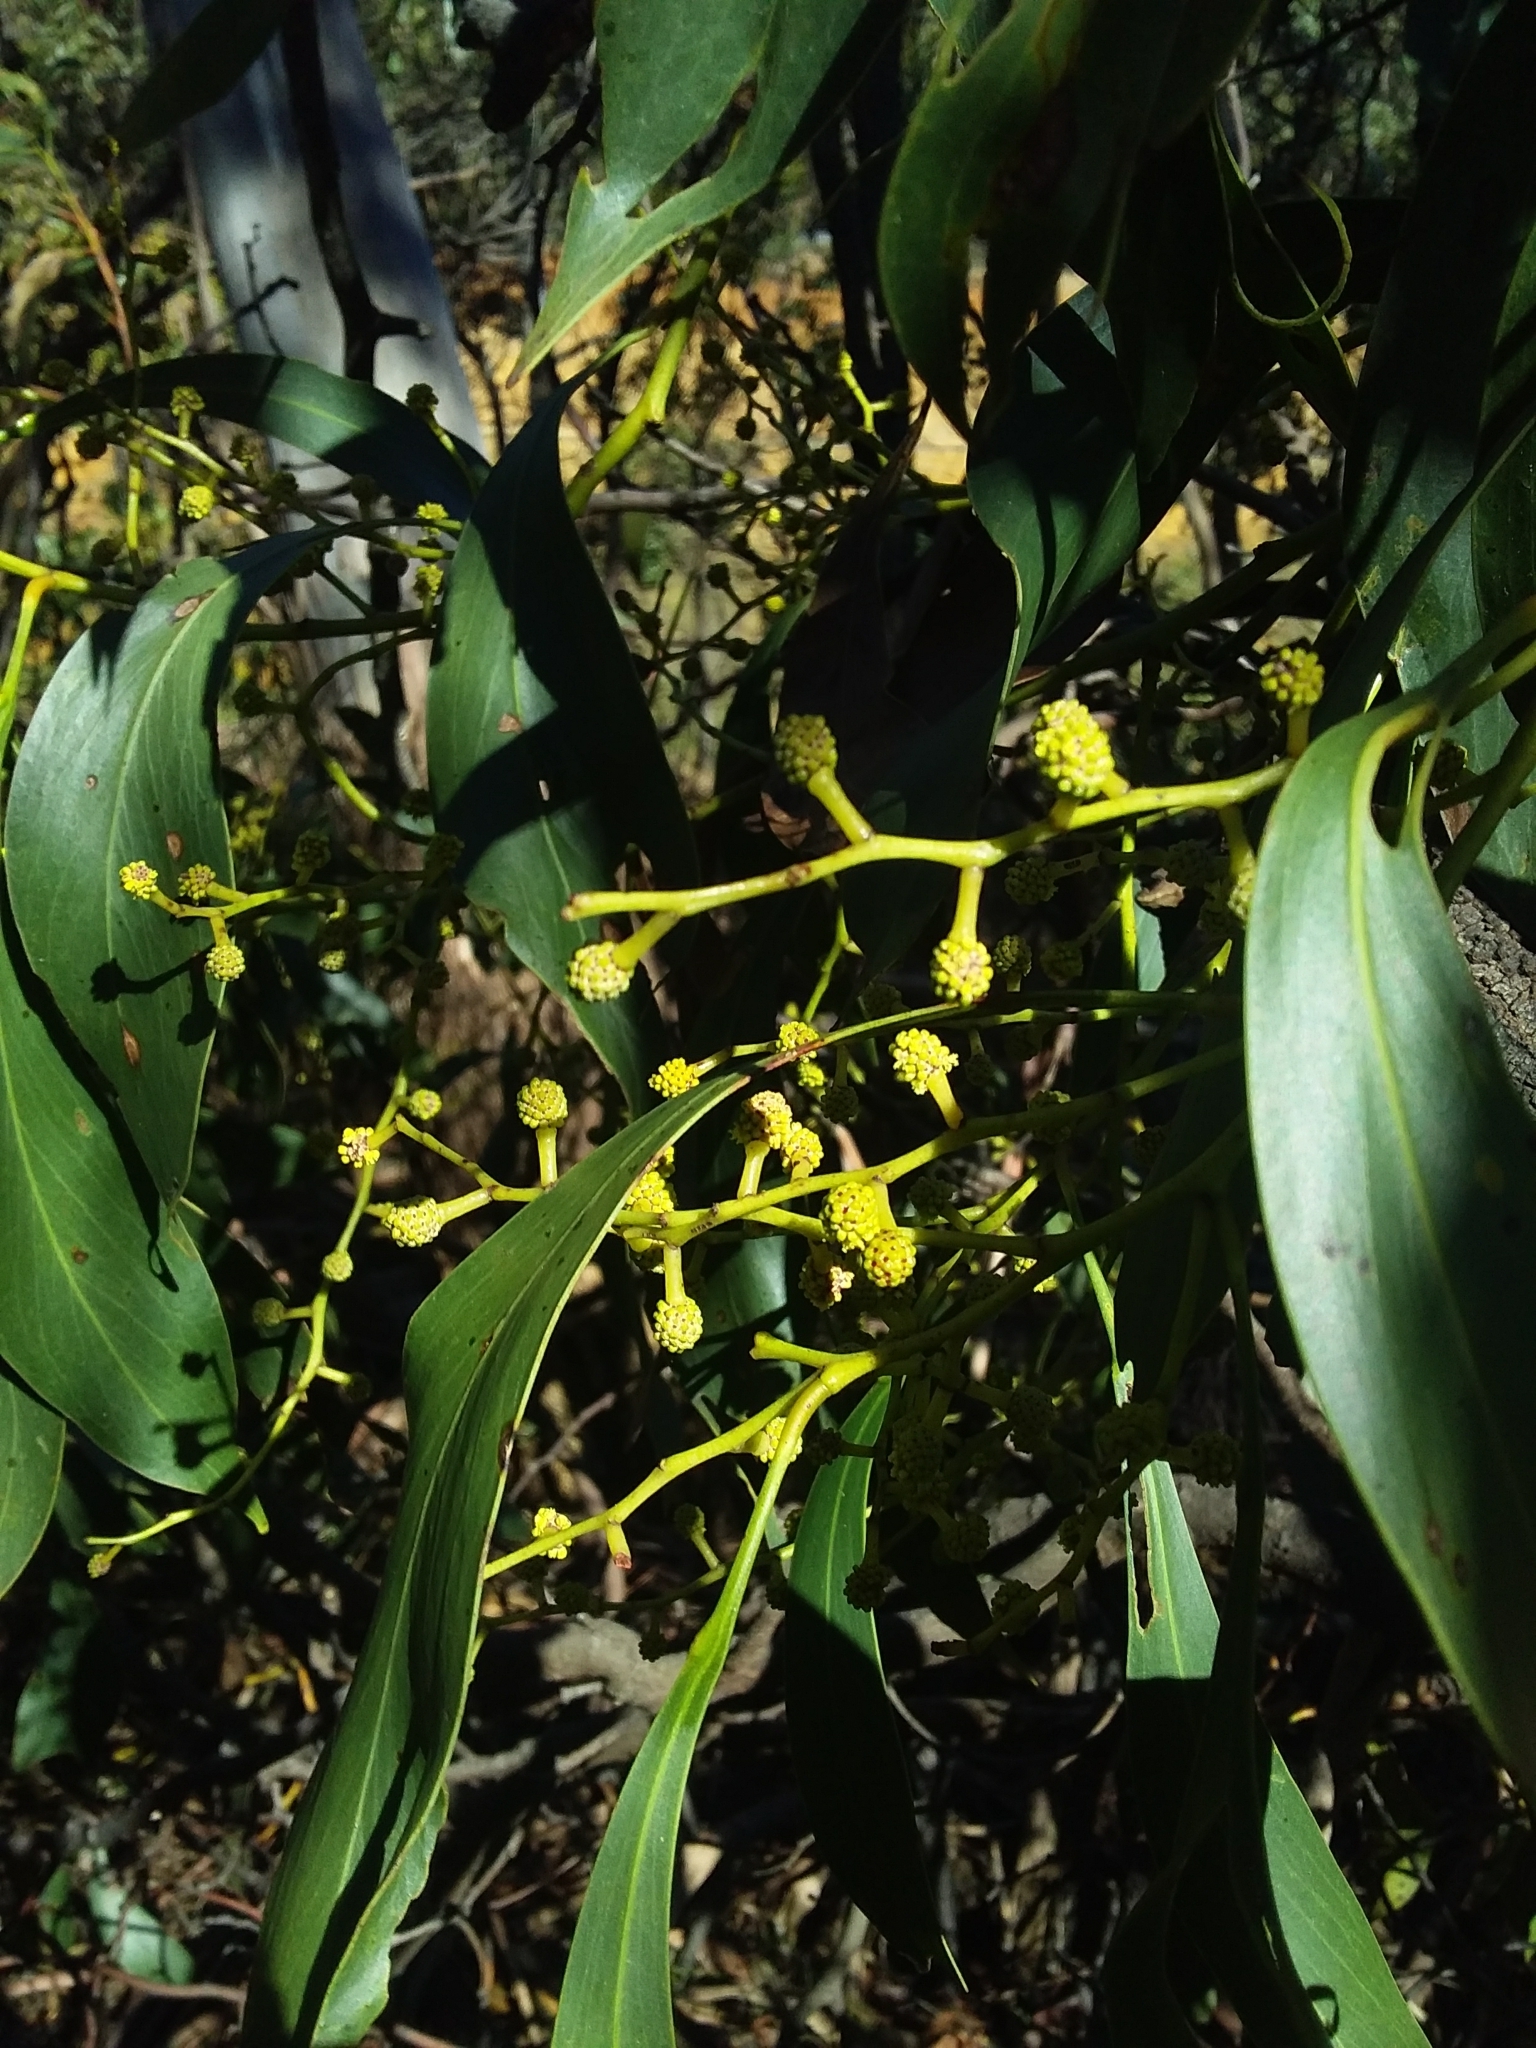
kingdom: Plantae
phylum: Tracheophyta
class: Magnoliopsida
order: Fabales
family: Fabaceae
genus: Acacia
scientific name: Acacia pycnantha
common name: Golden wattle
